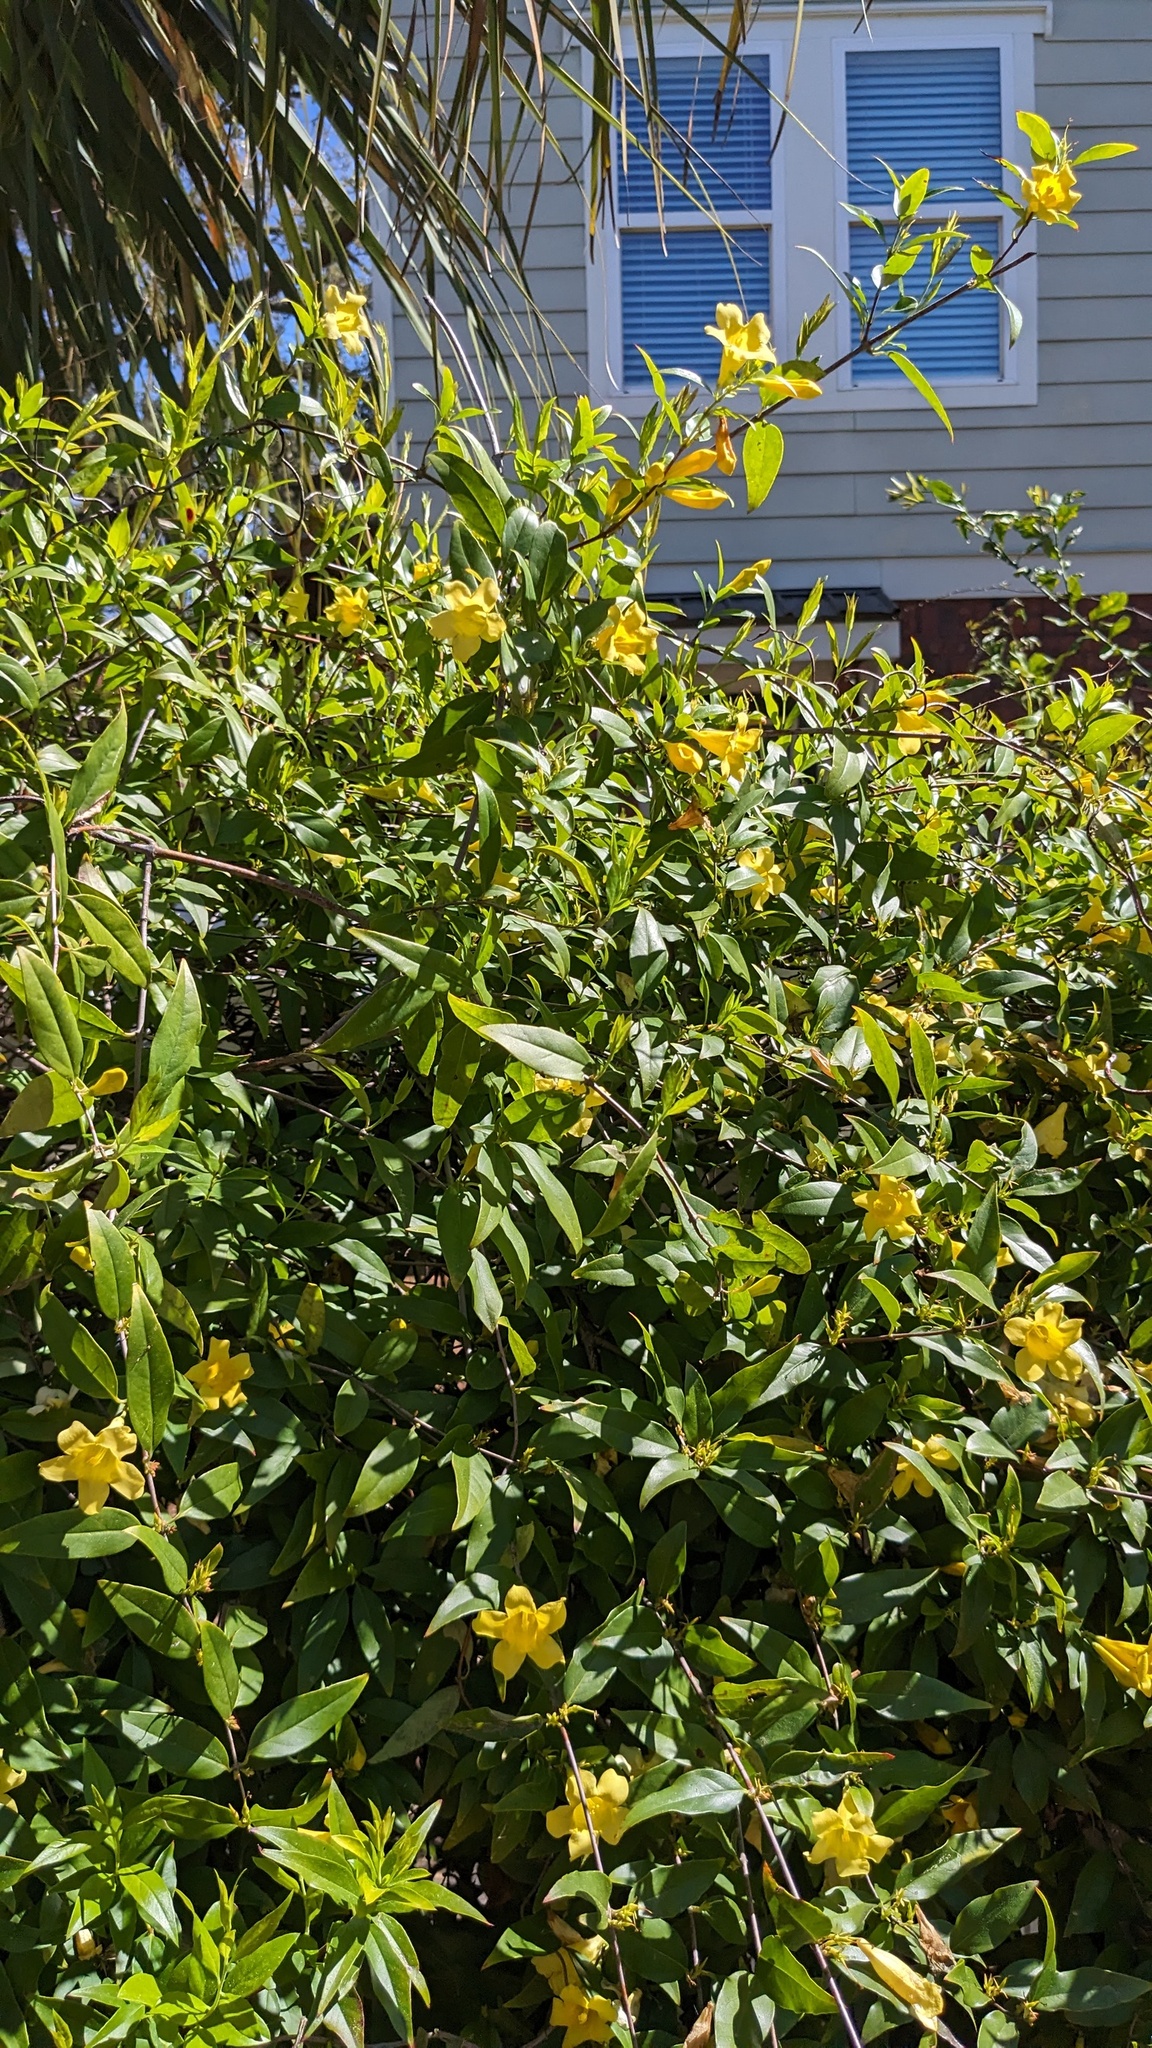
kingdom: Plantae
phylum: Tracheophyta
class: Magnoliopsida
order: Gentianales
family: Gelsemiaceae
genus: Gelsemium
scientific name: Gelsemium sempervirens
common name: Carolina-jasmine
